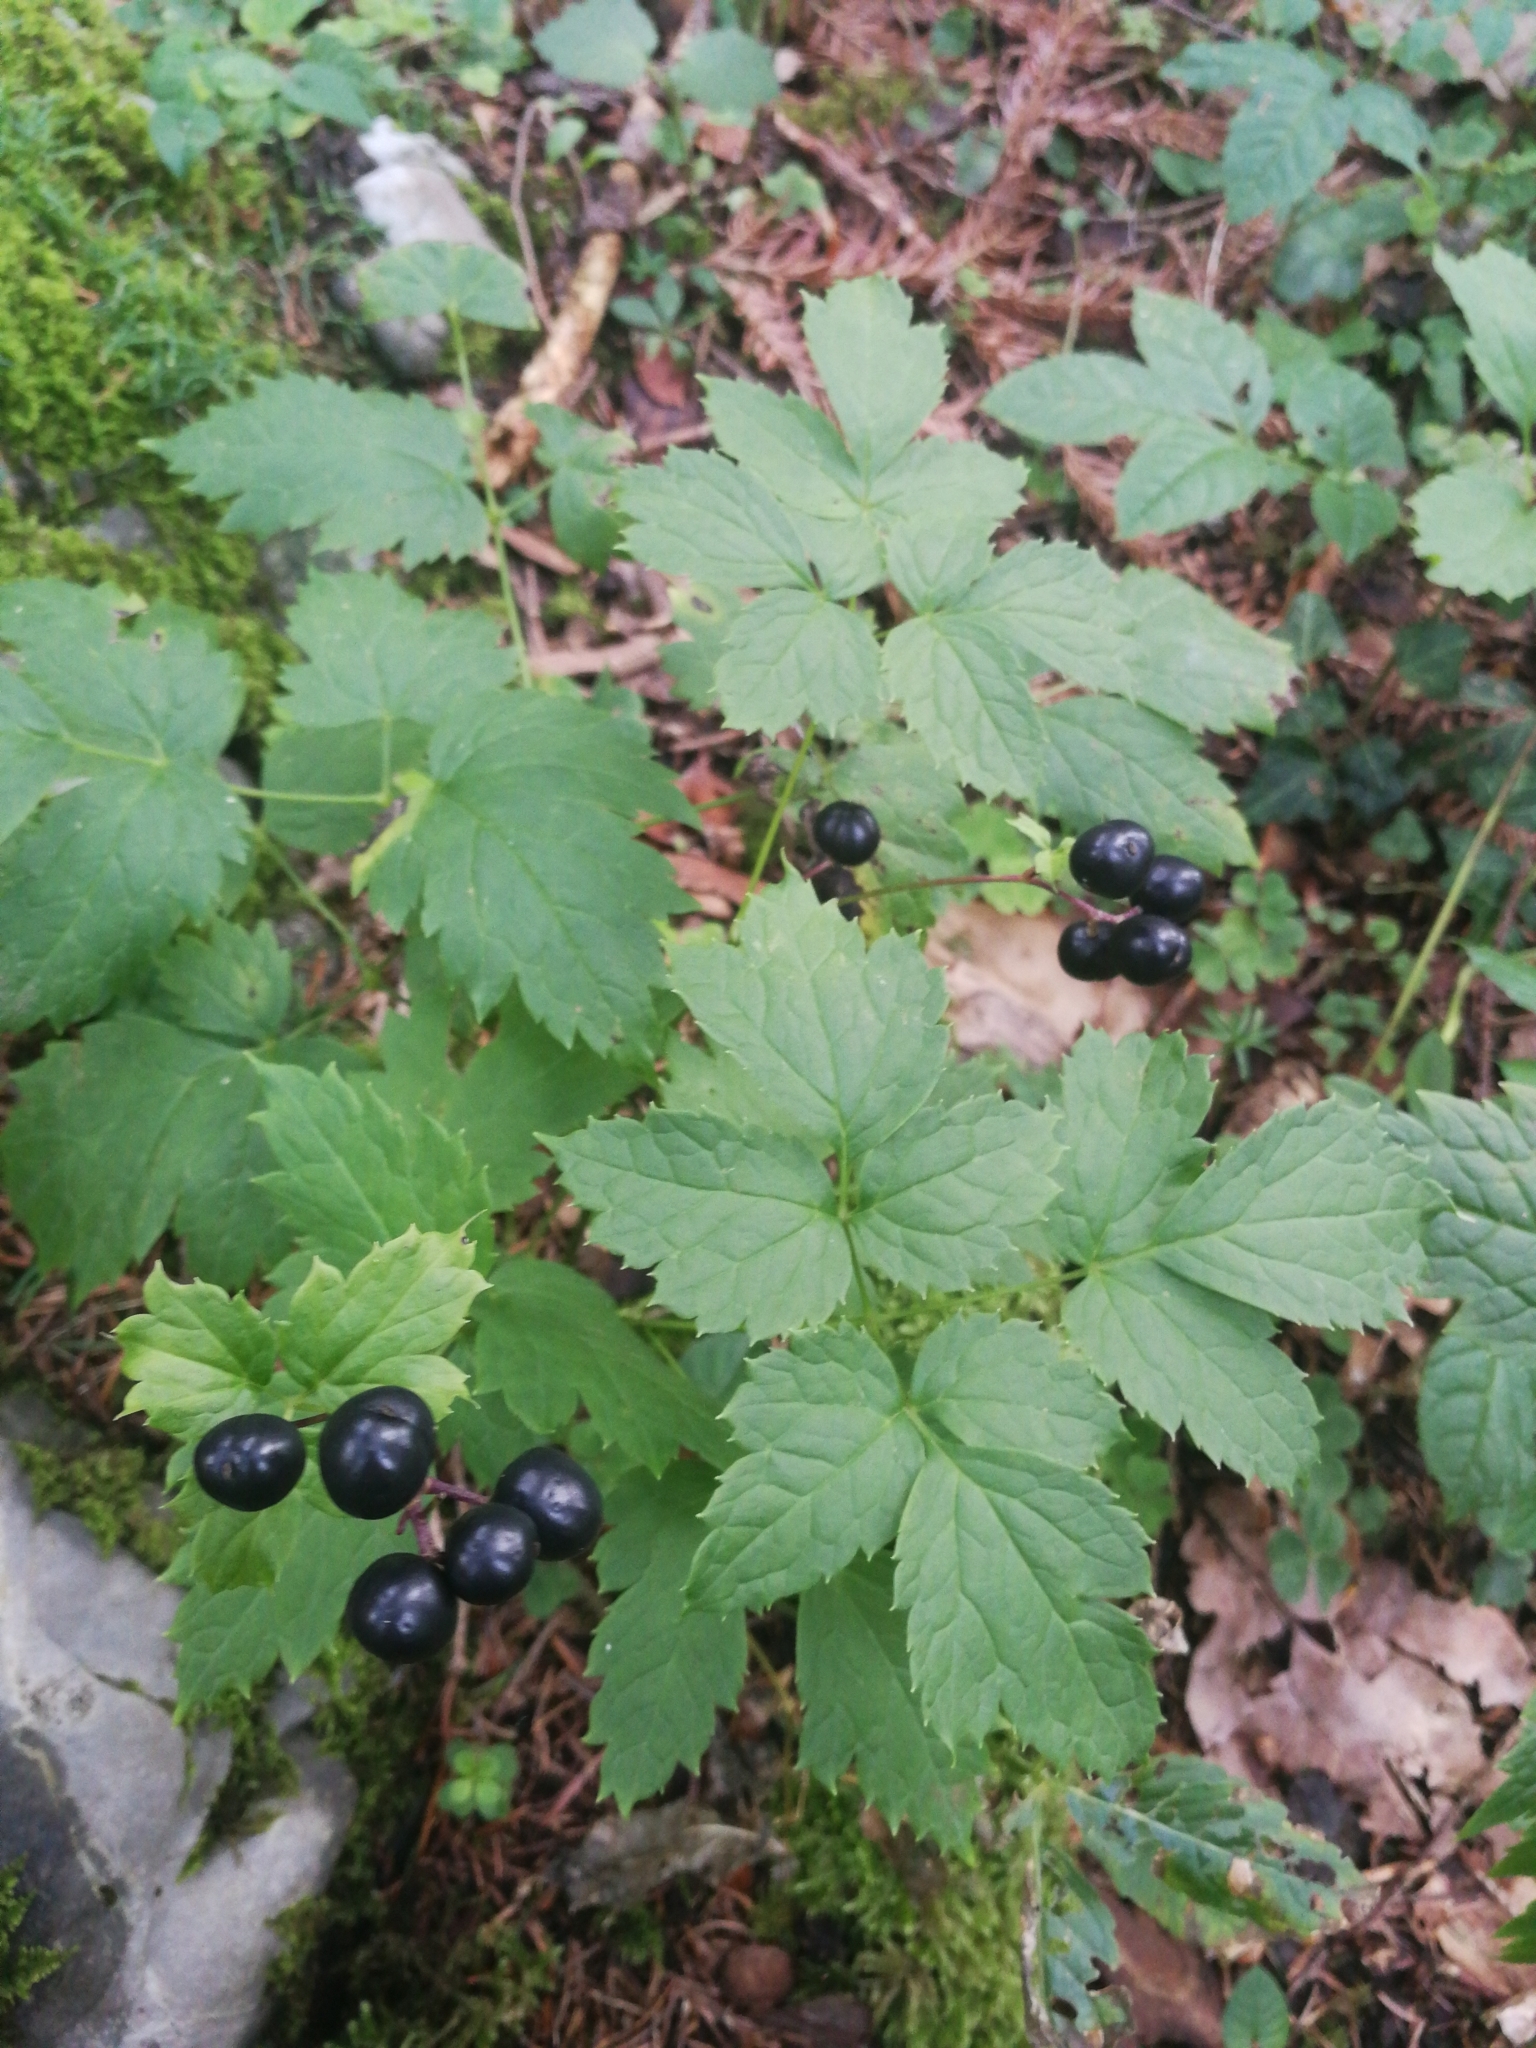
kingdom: Plantae
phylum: Tracheophyta
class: Magnoliopsida
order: Ranunculales
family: Ranunculaceae
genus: Actaea
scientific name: Actaea spicata
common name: Baneberry
